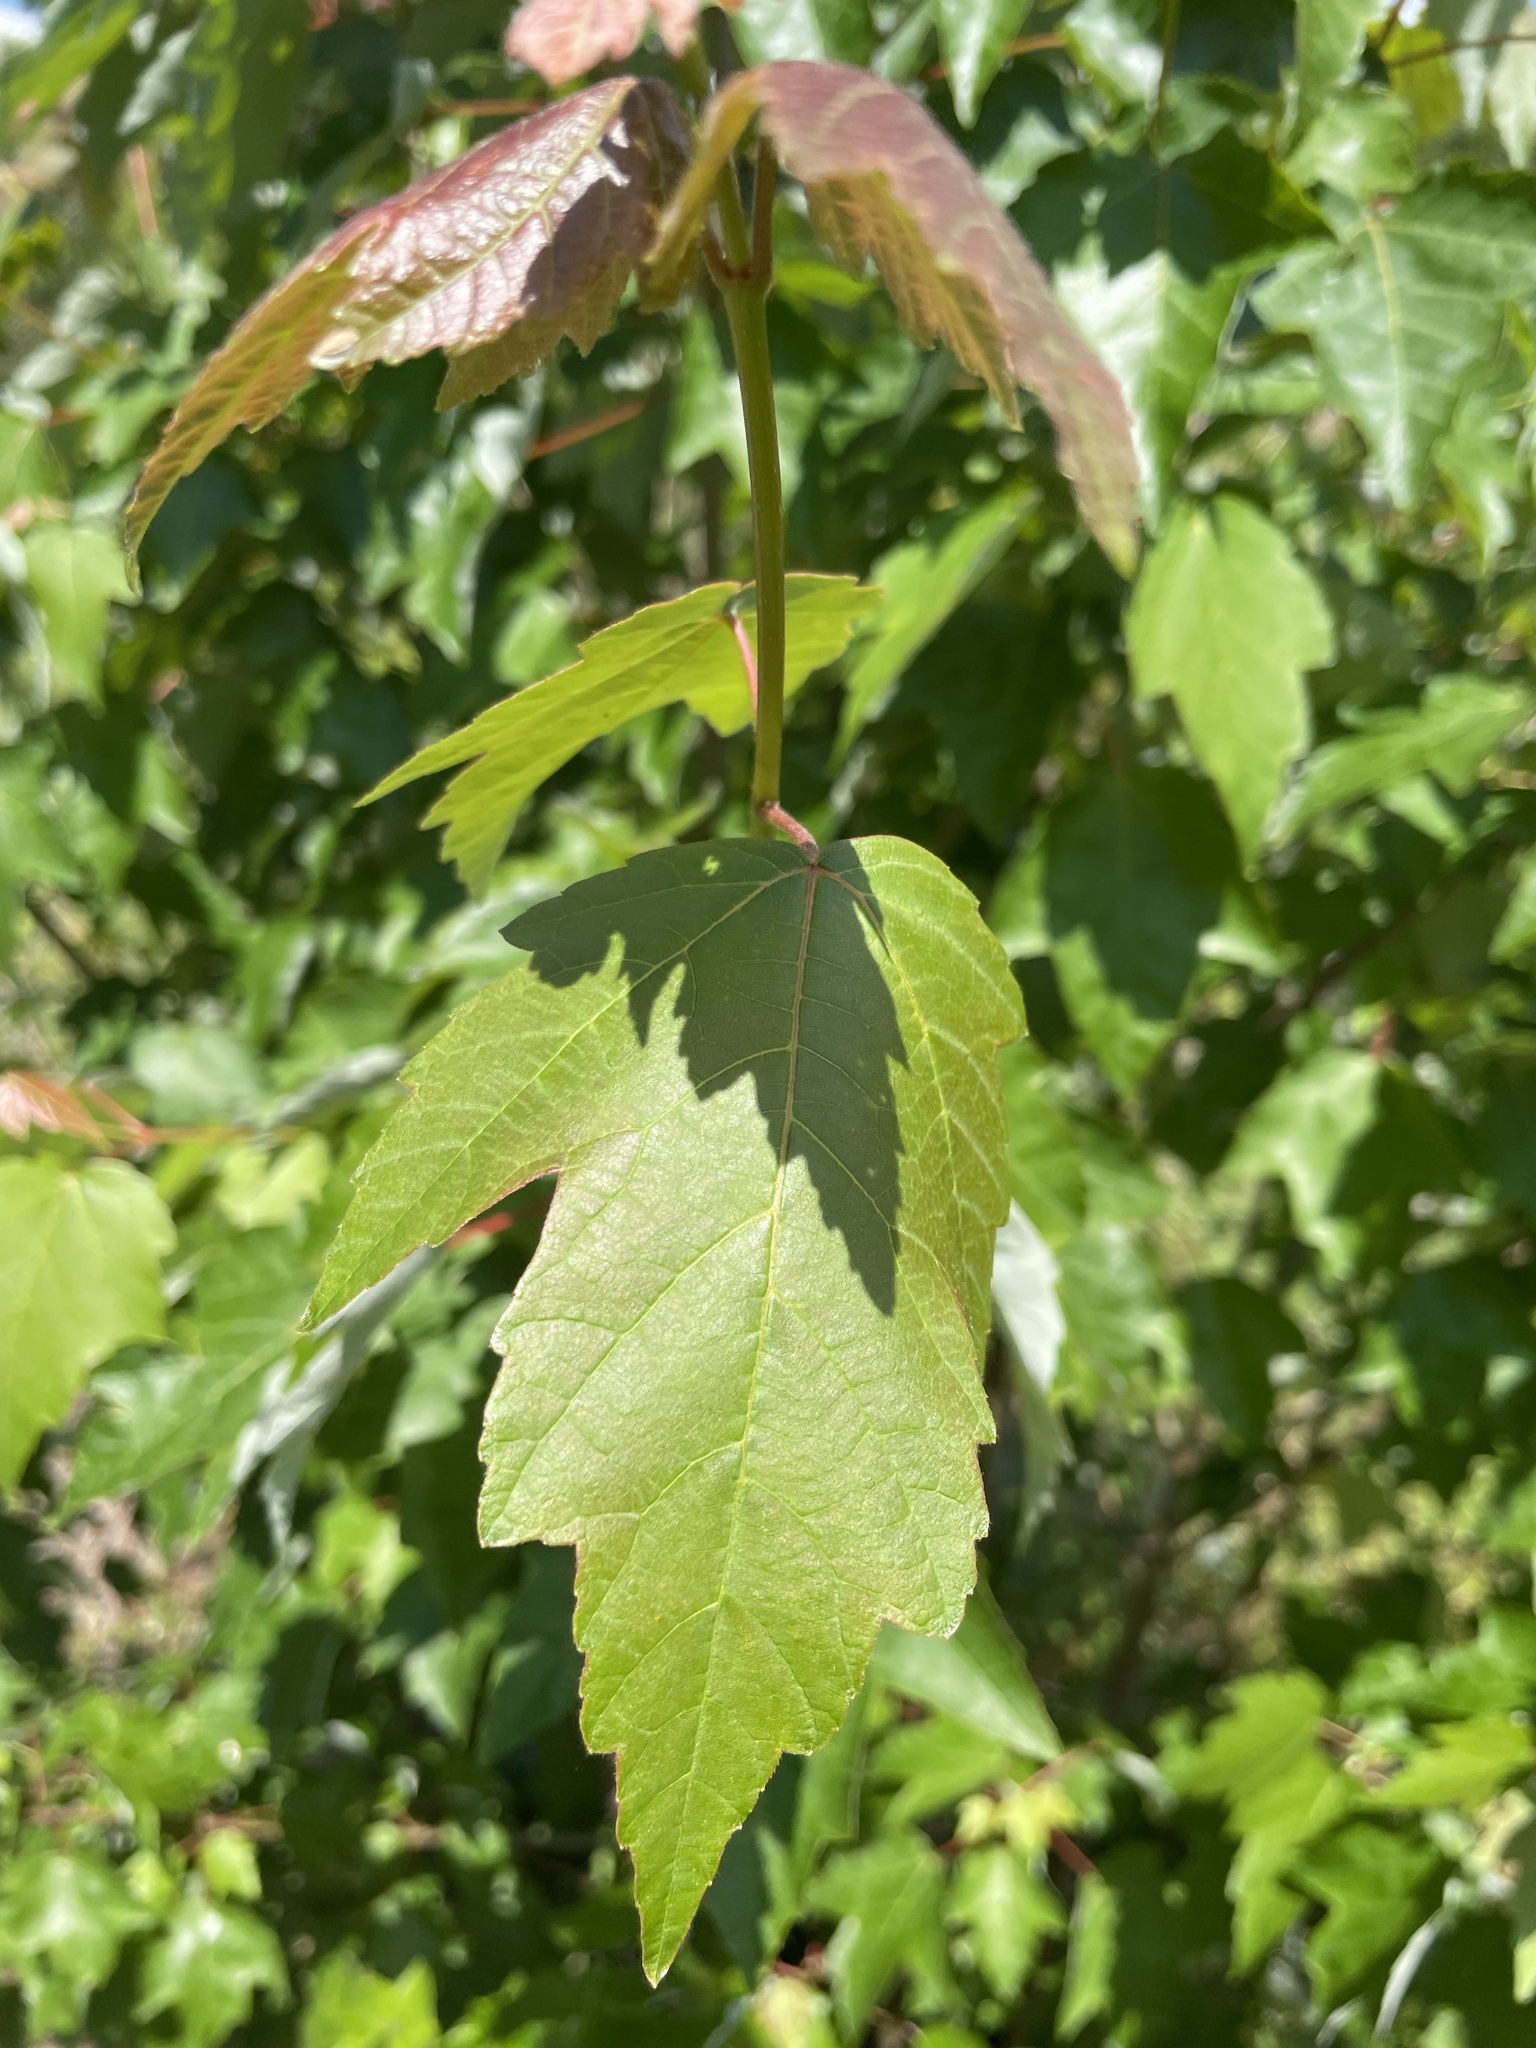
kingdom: Plantae
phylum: Tracheophyta
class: Magnoliopsida
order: Sapindales
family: Sapindaceae
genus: Acer
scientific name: Acer rubrum
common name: Red maple
